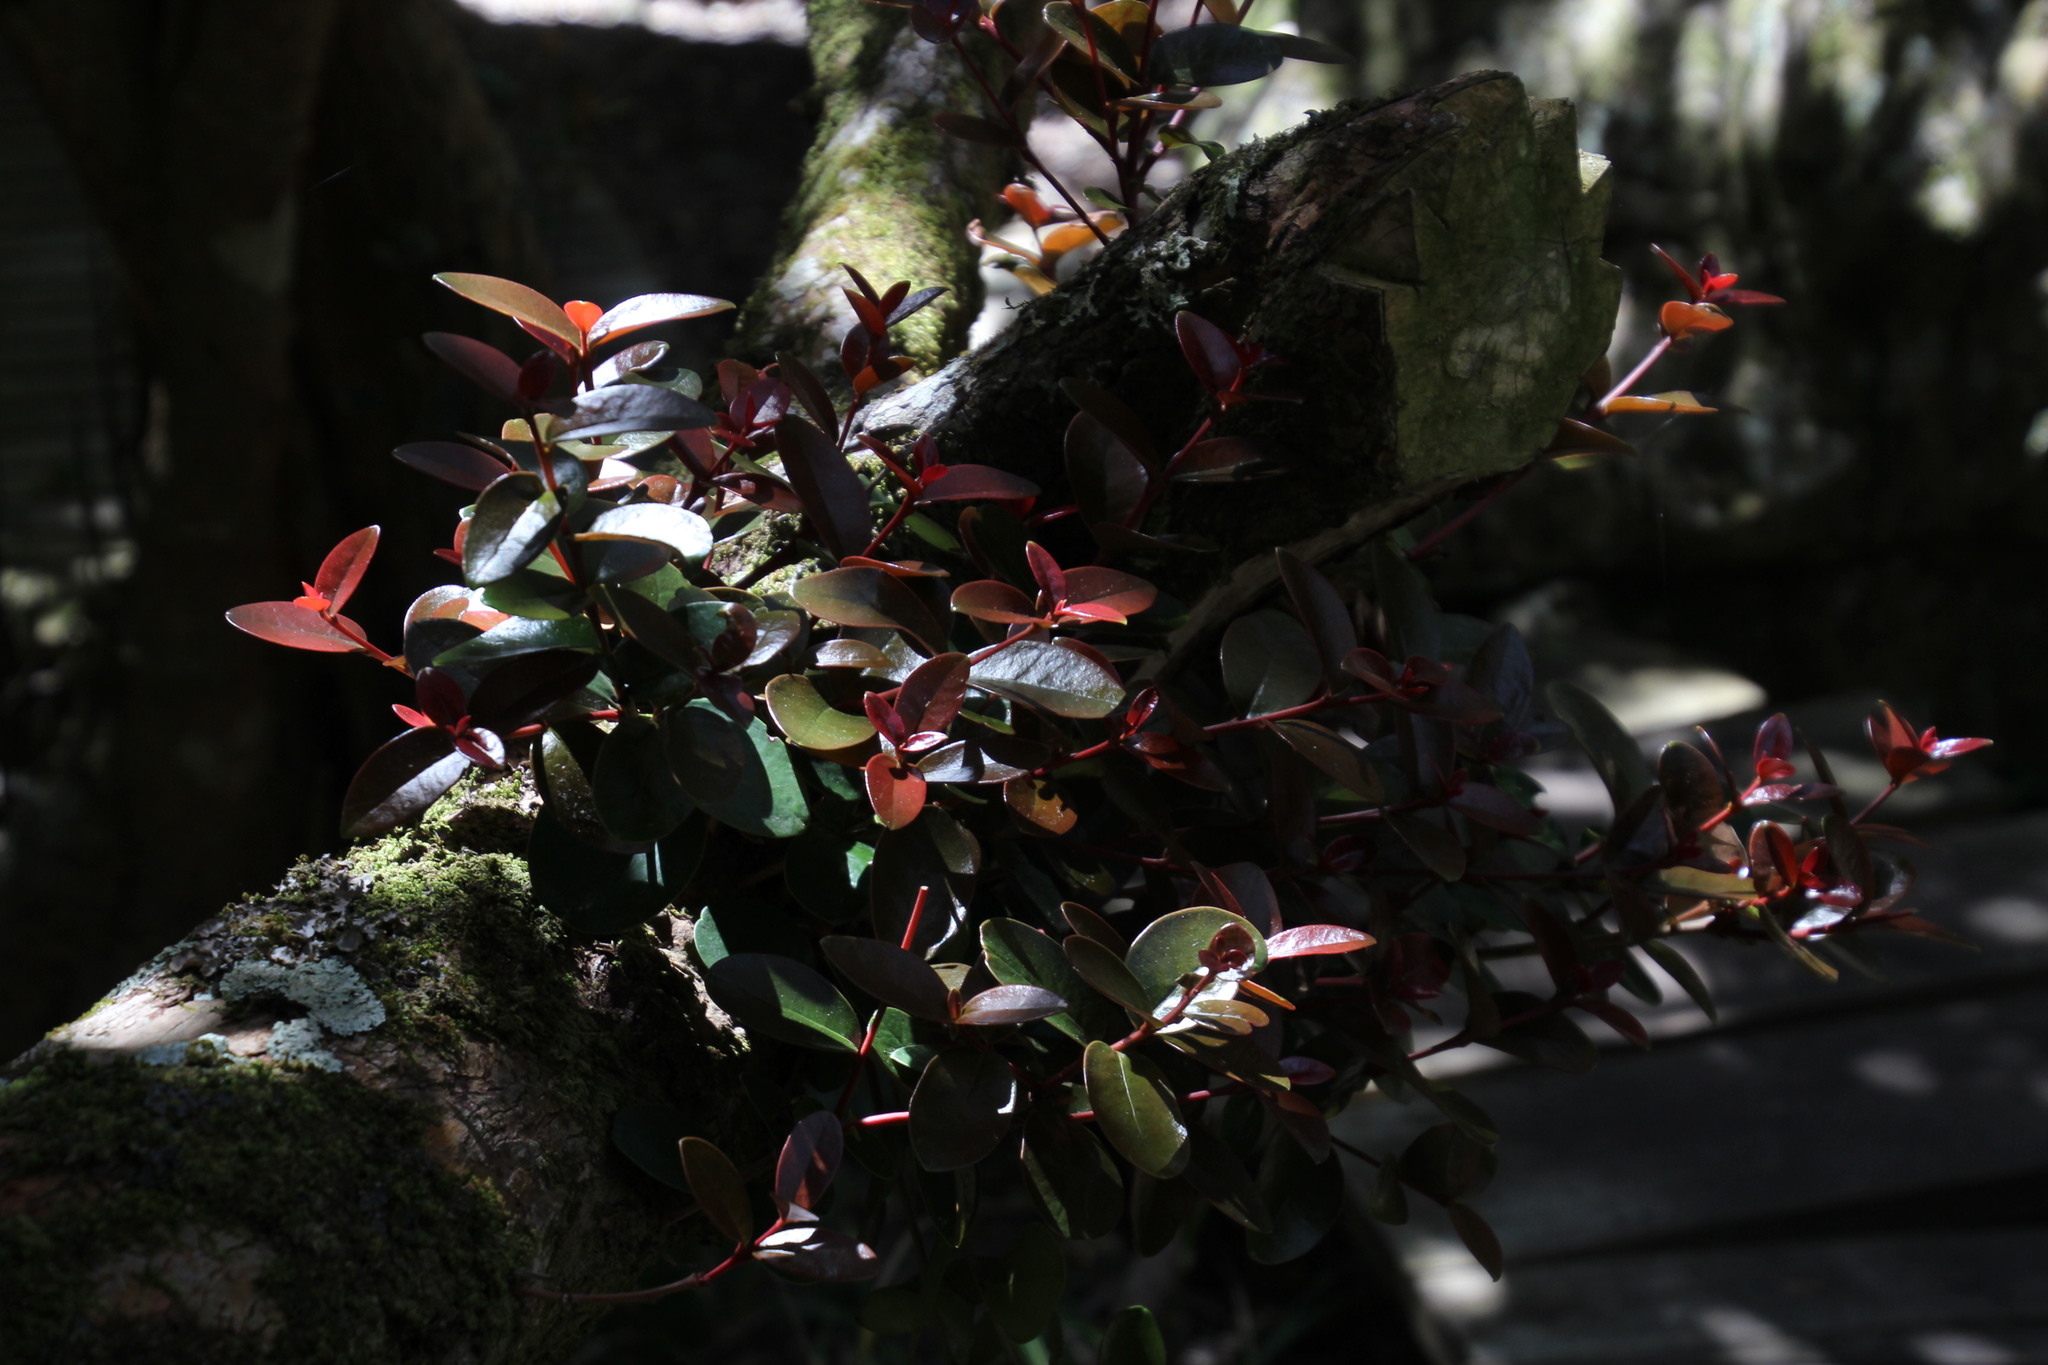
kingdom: Plantae
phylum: Tracheophyta
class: Magnoliopsida
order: Celastrales
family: Celastraceae
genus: Maurocenia
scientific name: Maurocenia frangula
